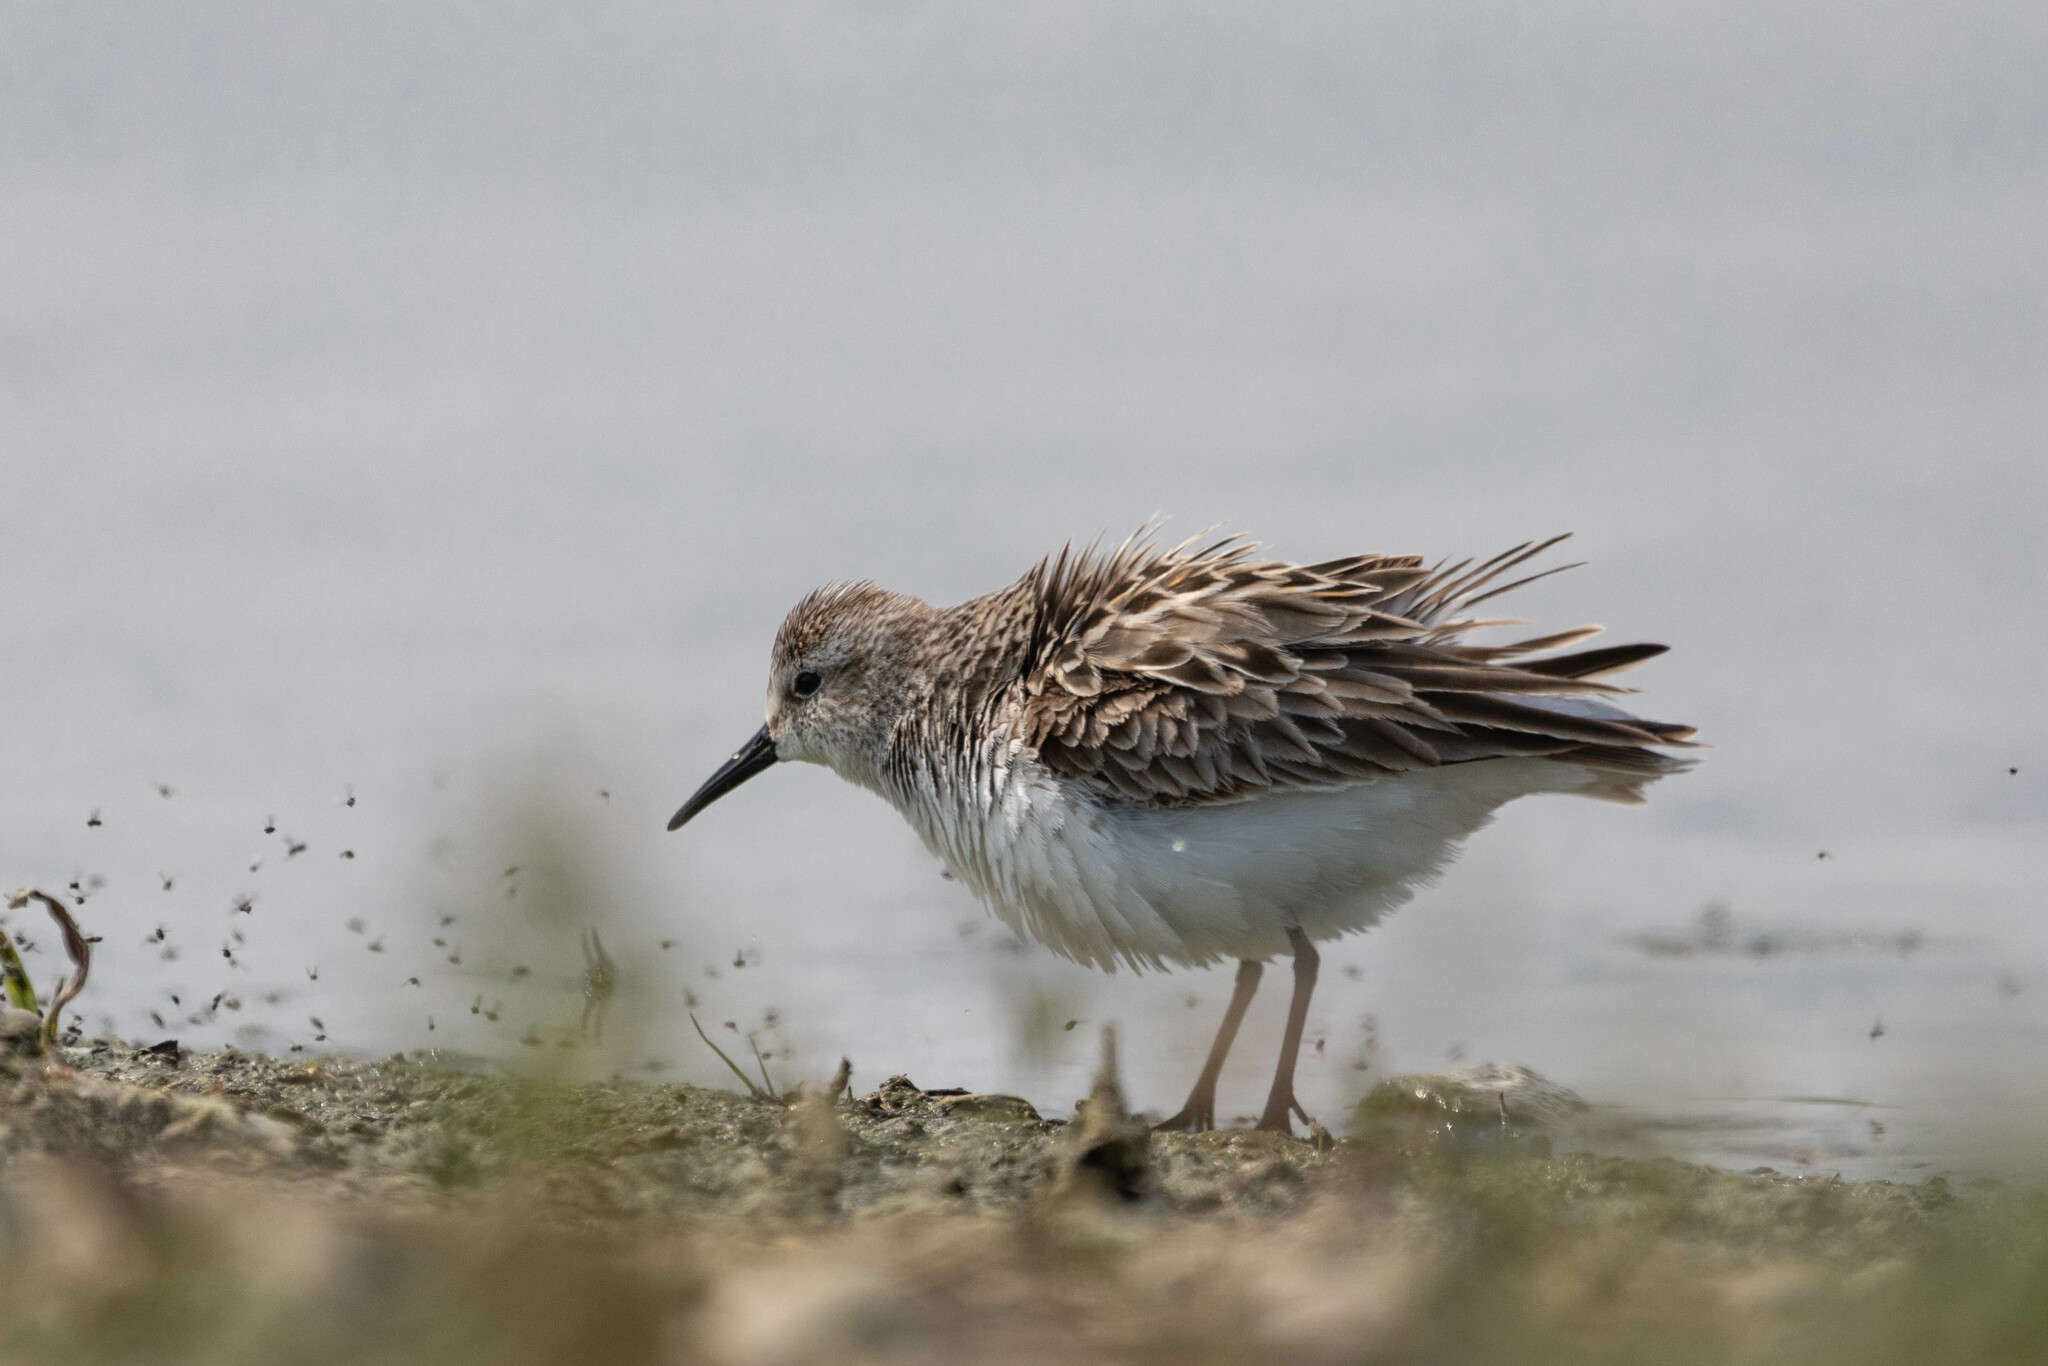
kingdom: Animalia
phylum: Chordata
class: Aves
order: Charadriiformes
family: Scolopacidae
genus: Calidris
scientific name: Calidris pusilla
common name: Semipalmated sandpiper
